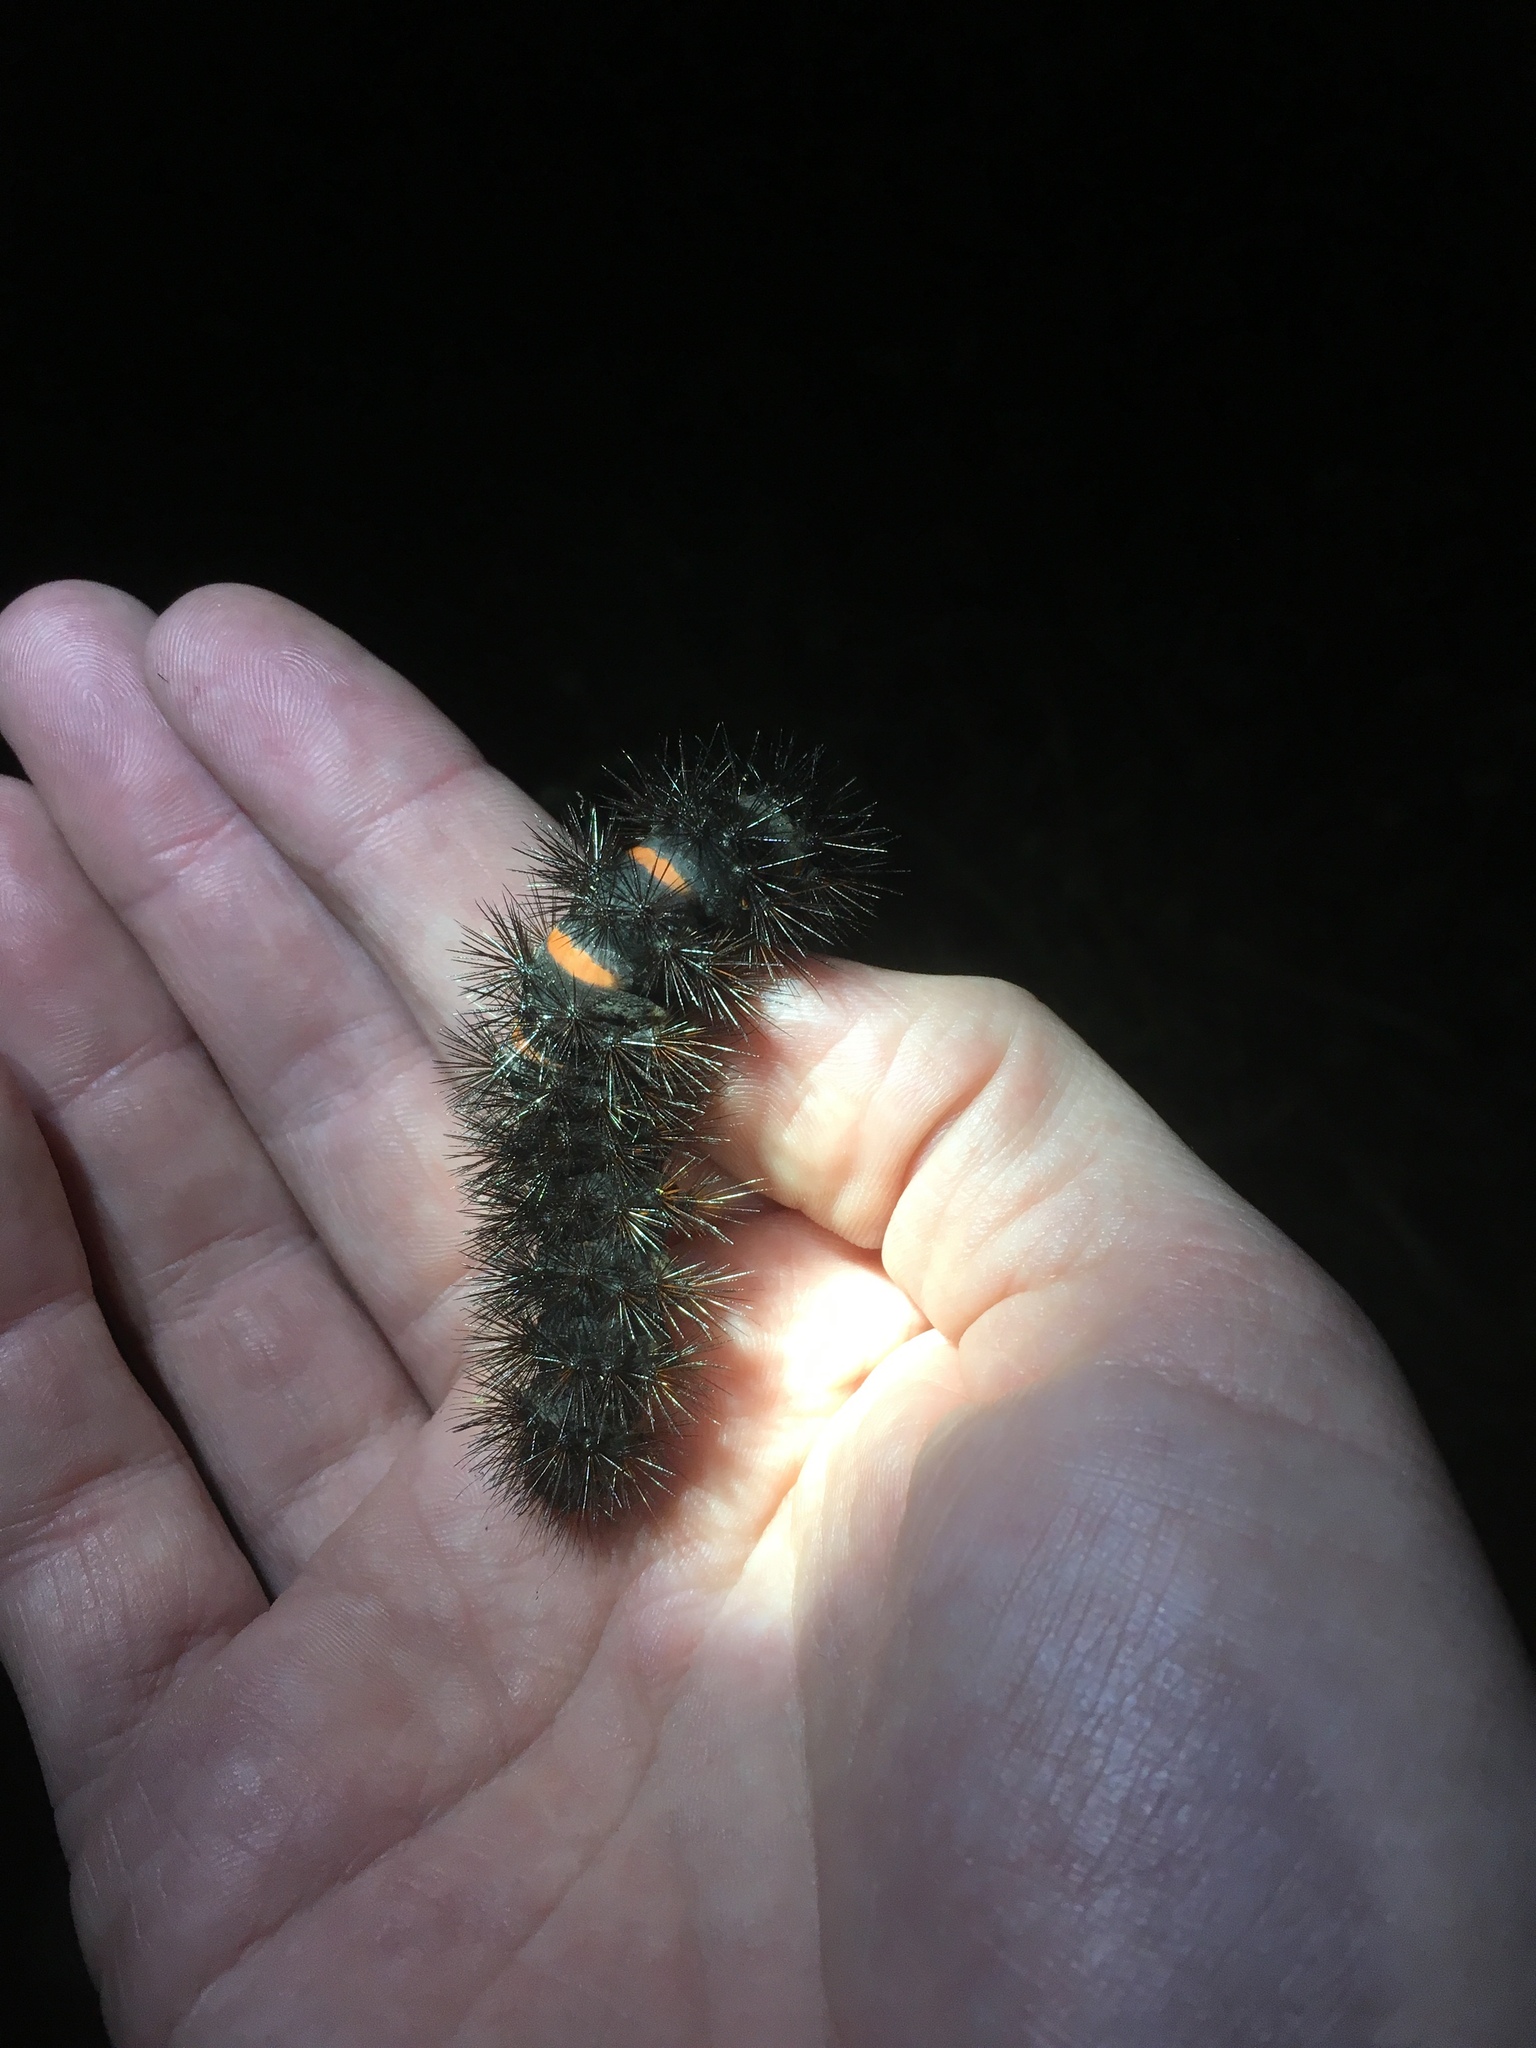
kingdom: Animalia
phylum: Arthropoda
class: Insecta
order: Lepidoptera
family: Erebidae
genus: Hypercompe
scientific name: Hypercompe scribonia
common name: Giant leopard moth
